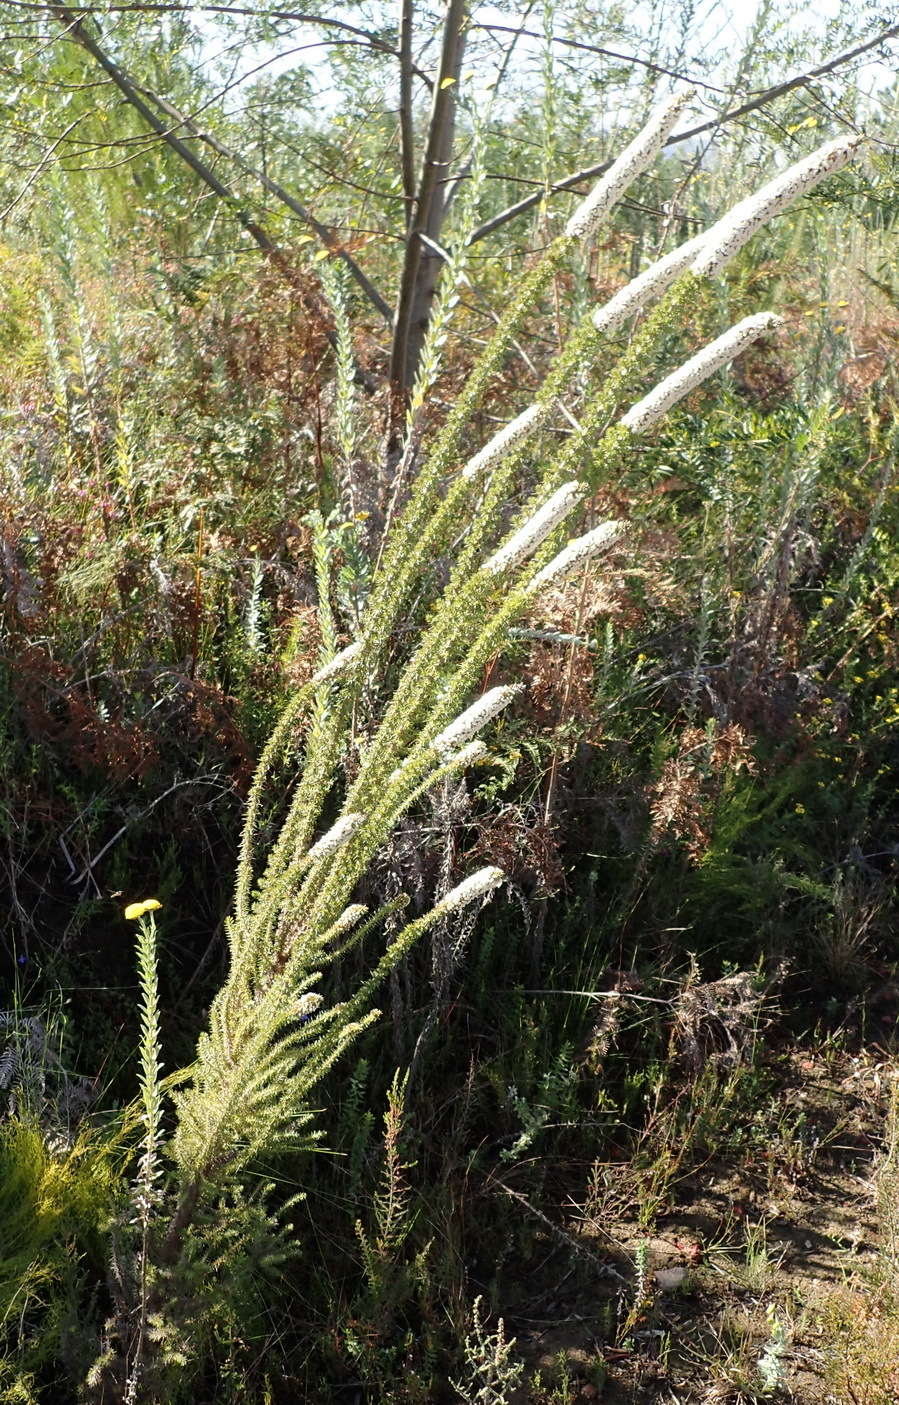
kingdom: Plantae
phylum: Tracheophyta
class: Magnoliopsida
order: Asterales
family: Asteraceae
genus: Stoebe
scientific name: Stoebe alopecuroides
